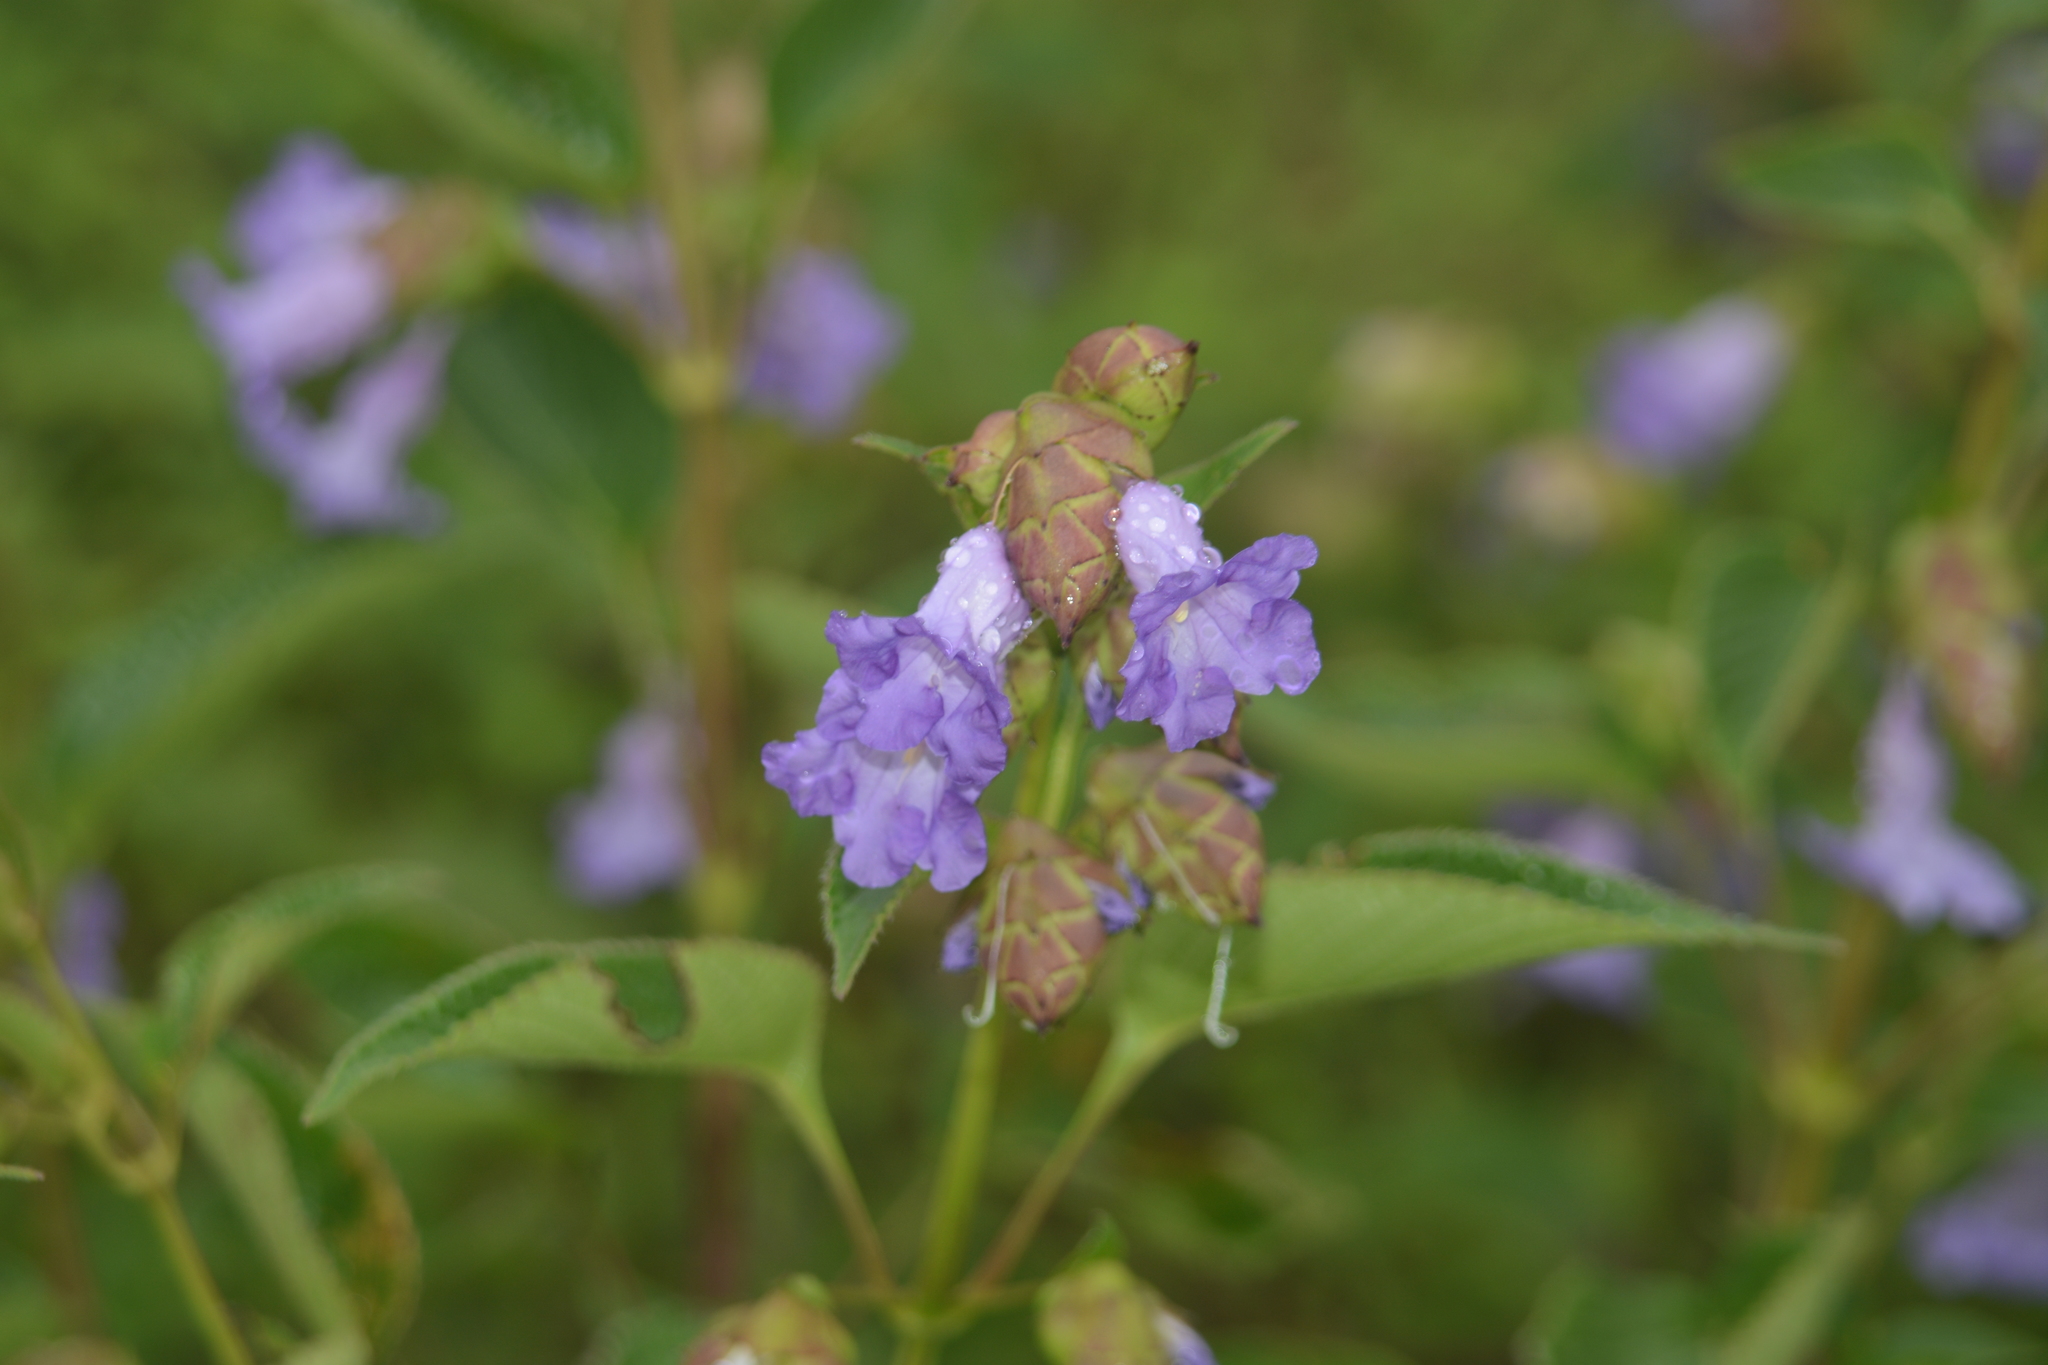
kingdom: Plantae
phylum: Tracheophyta
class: Magnoliopsida
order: Lamiales
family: Acanthaceae
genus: Strobilanthes
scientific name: Strobilanthes reticulata
